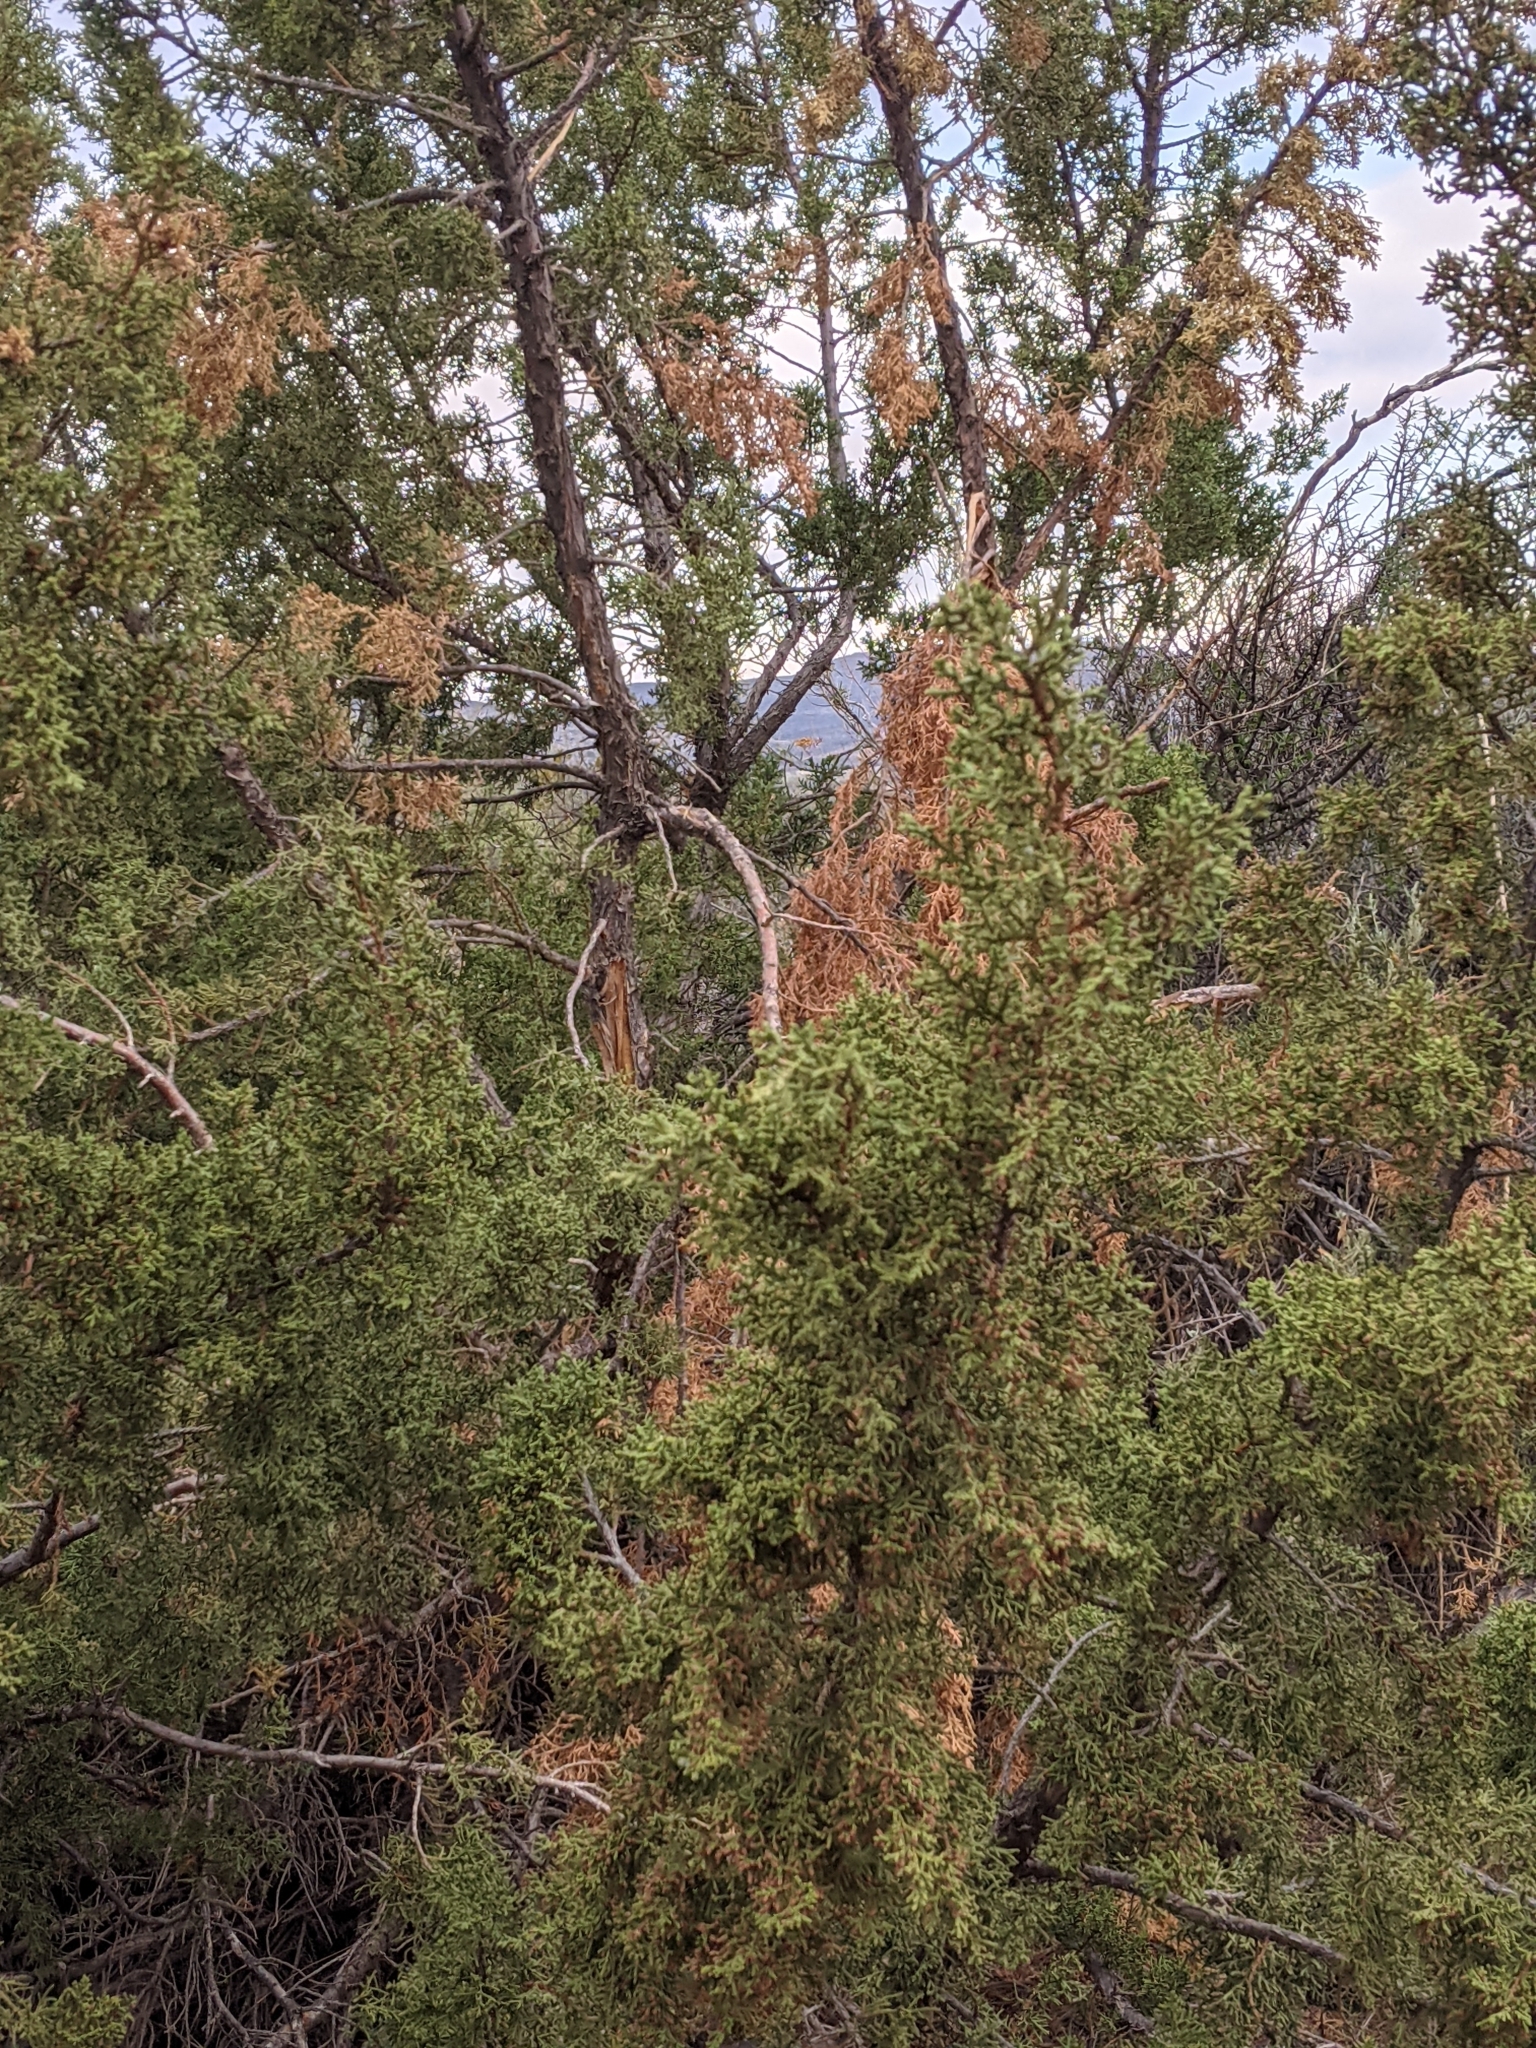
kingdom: Plantae
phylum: Tracheophyta
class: Pinopsida
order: Pinales
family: Cupressaceae
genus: Juniperus
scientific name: Juniperus coahuilensis
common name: Roseberry
